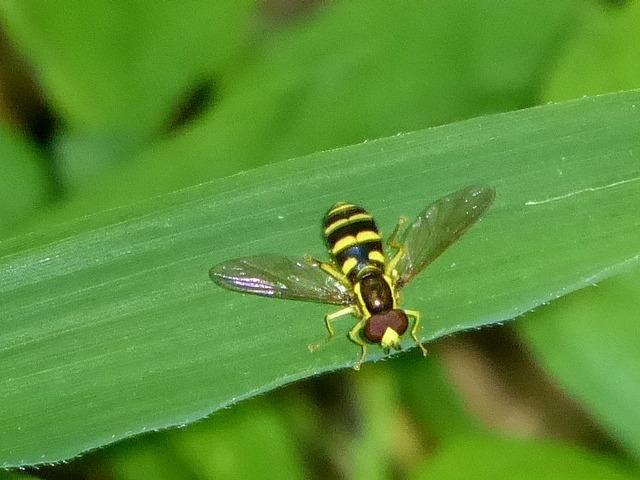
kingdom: Animalia
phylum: Arthropoda
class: Insecta
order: Diptera
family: Syrphidae
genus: Philhelius
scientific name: Philhelius flavipes
